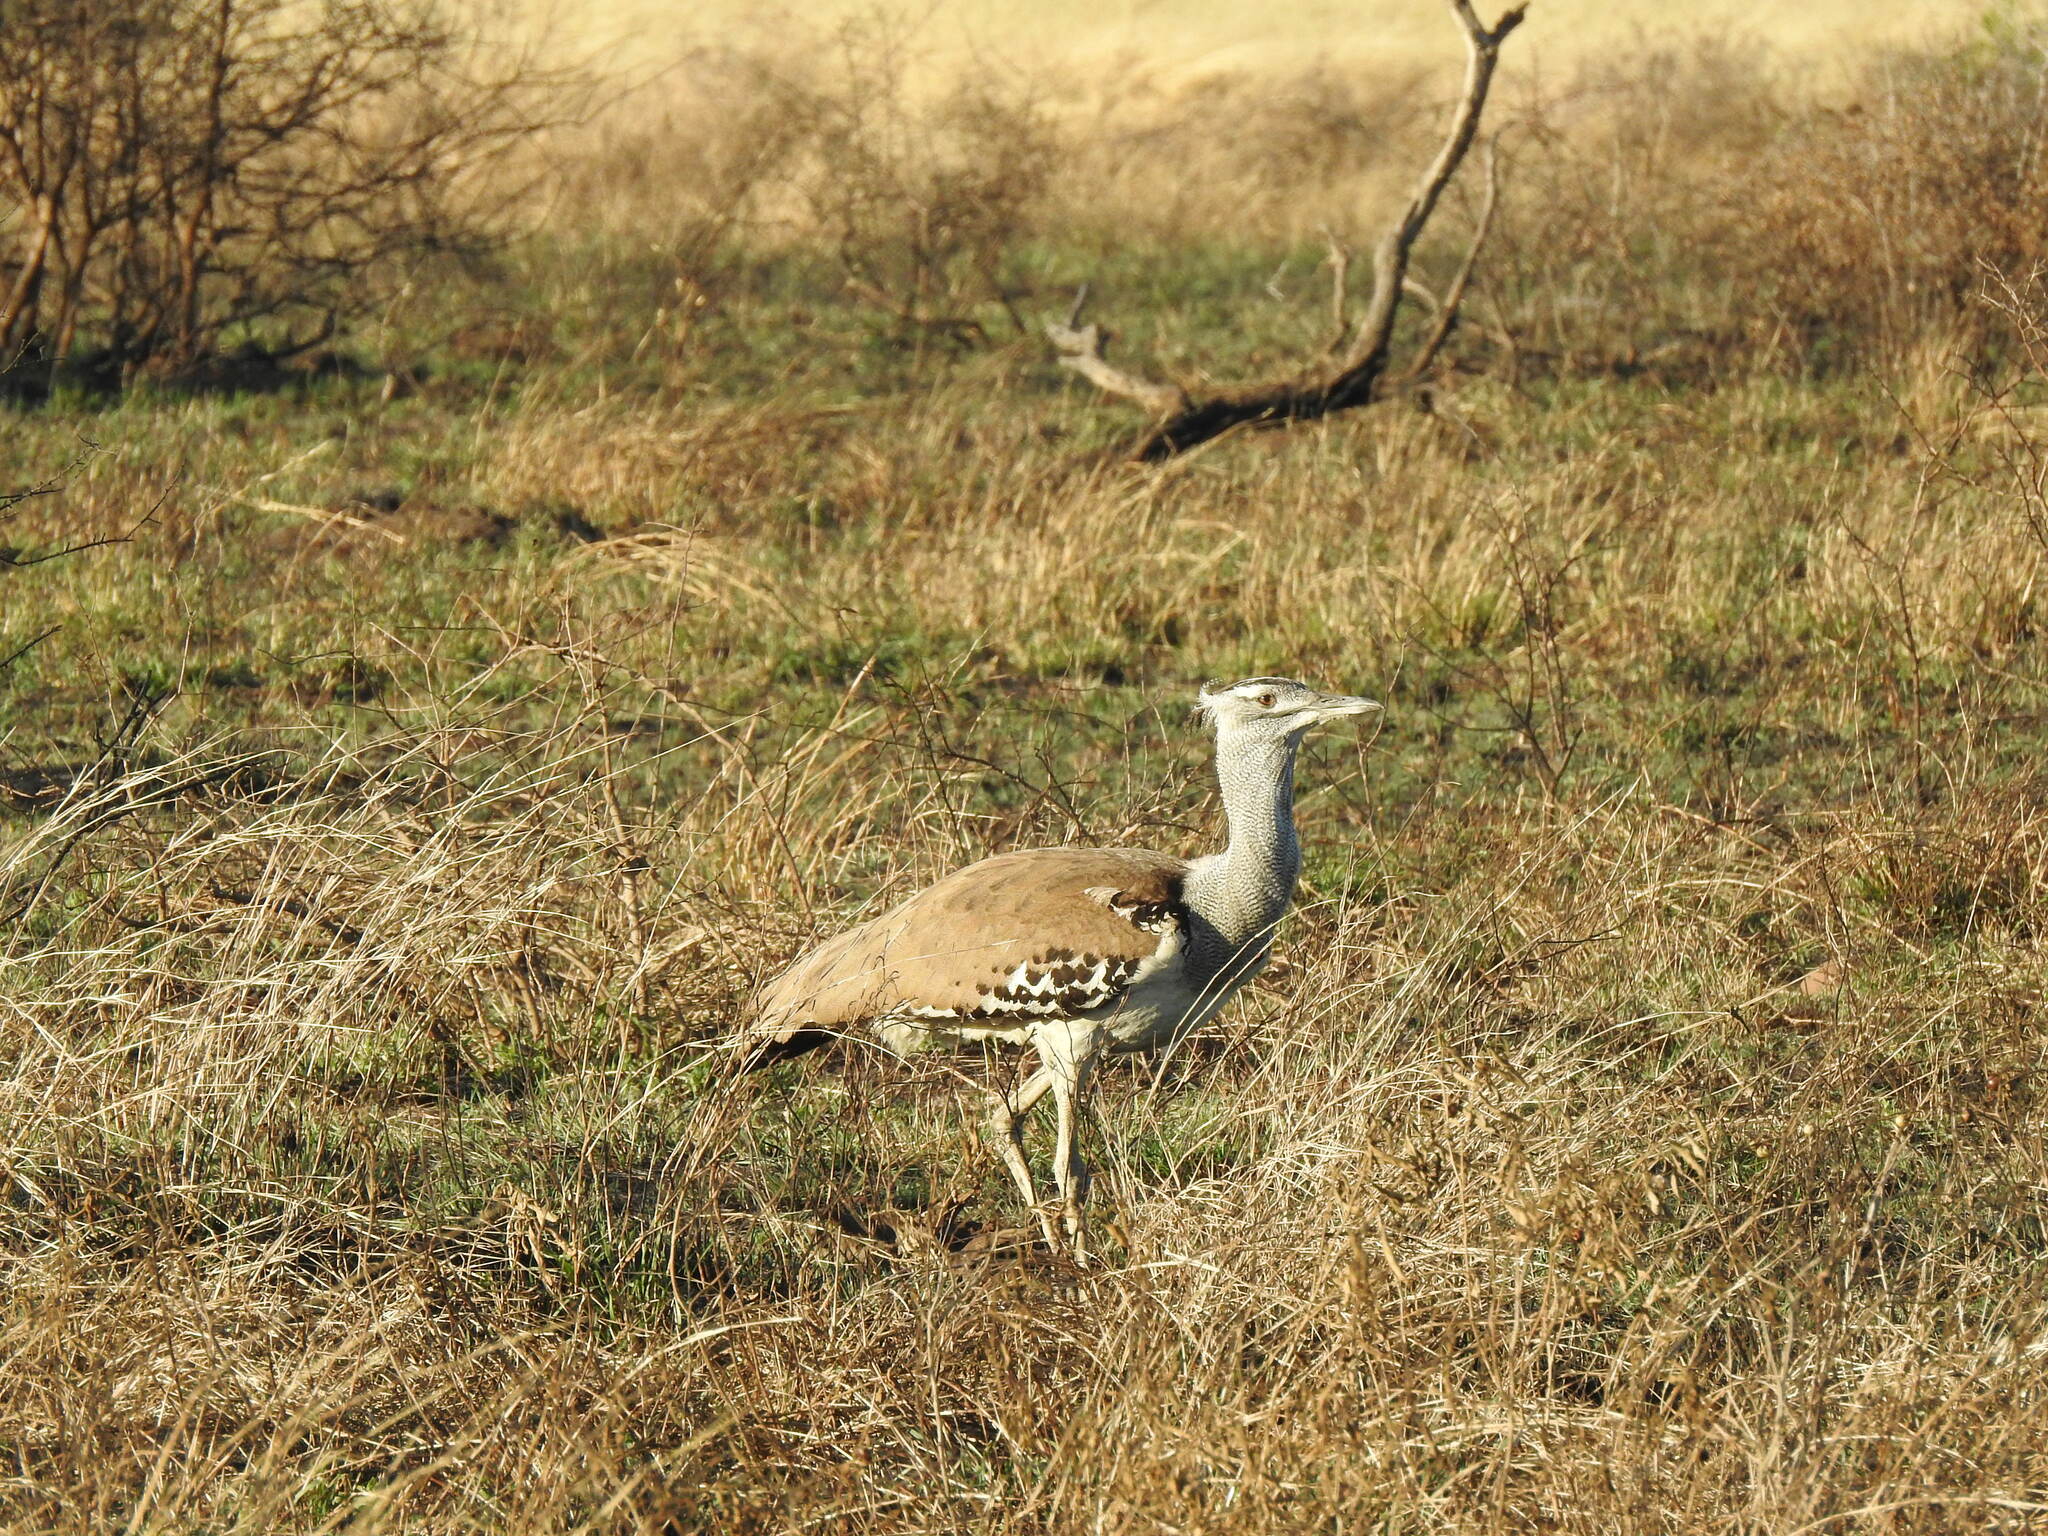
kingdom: Animalia
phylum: Chordata
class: Aves
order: Otidiformes
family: Otididae
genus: Ardeotis
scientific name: Ardeotis kori
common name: Kori bustard
